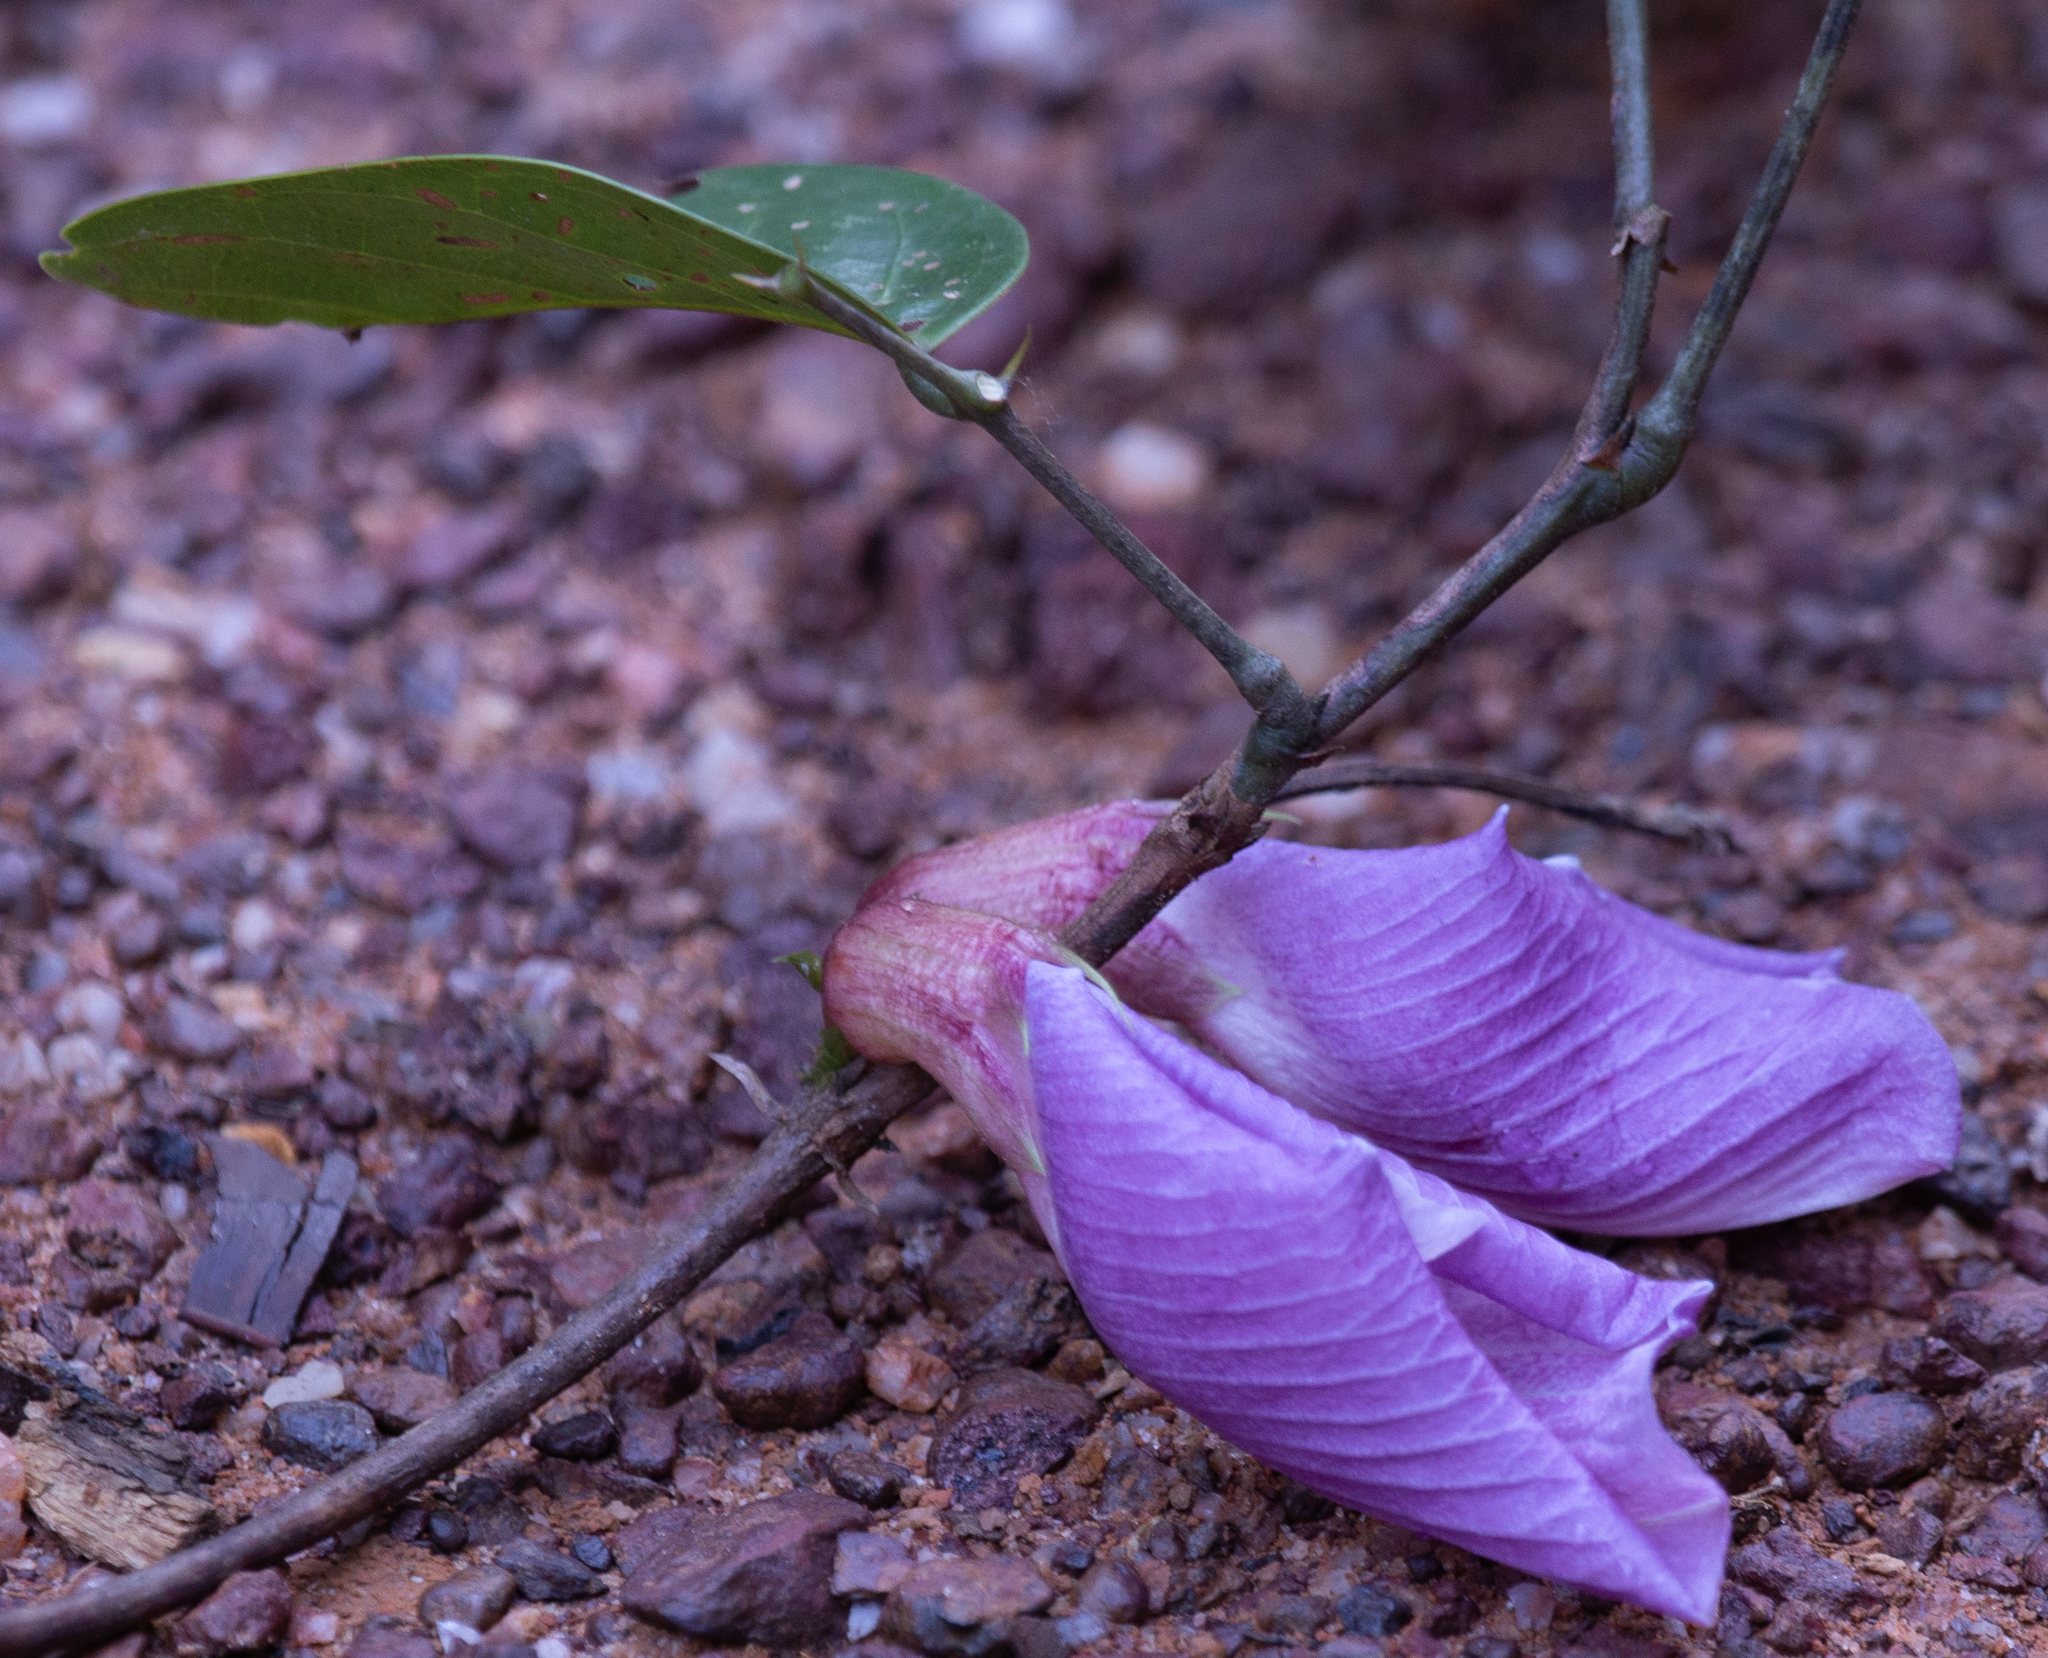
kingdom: Plantae
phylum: Tracheophyta
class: Magnoliopsida
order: Fabales
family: Fabaceae
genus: Clitoria
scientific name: Clitoria sagotii
